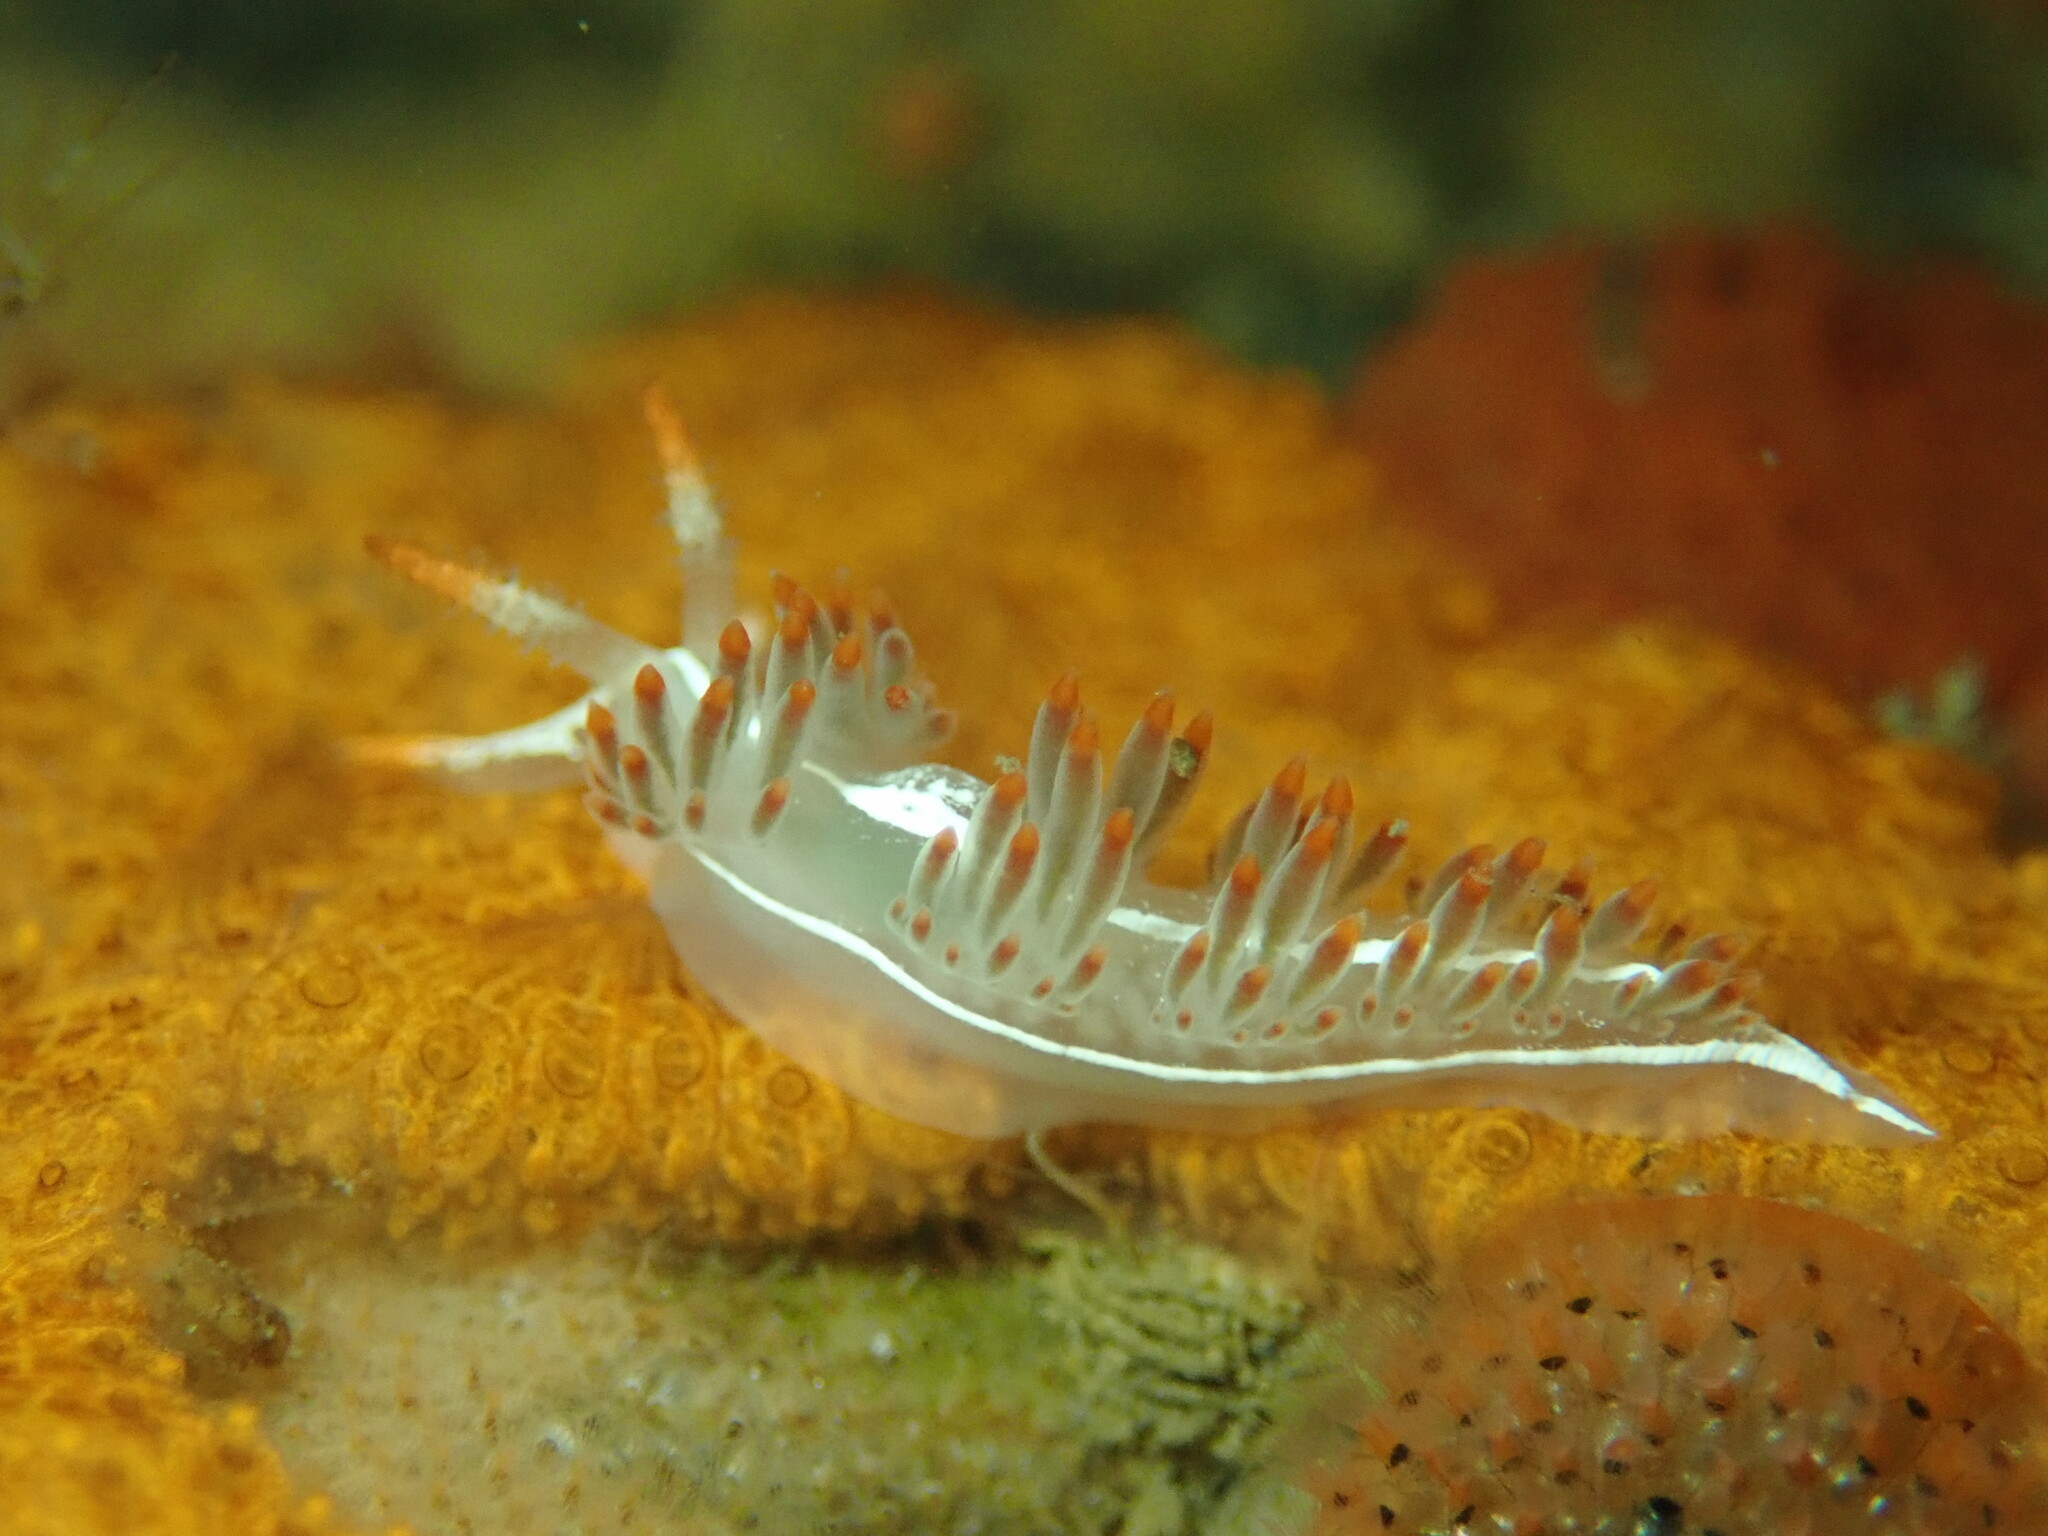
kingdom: Animalia
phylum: Mollusca
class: Gastropoda
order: Nudibranchia
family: Coryphellidae
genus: Coryphella
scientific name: Coryphella trilineata
